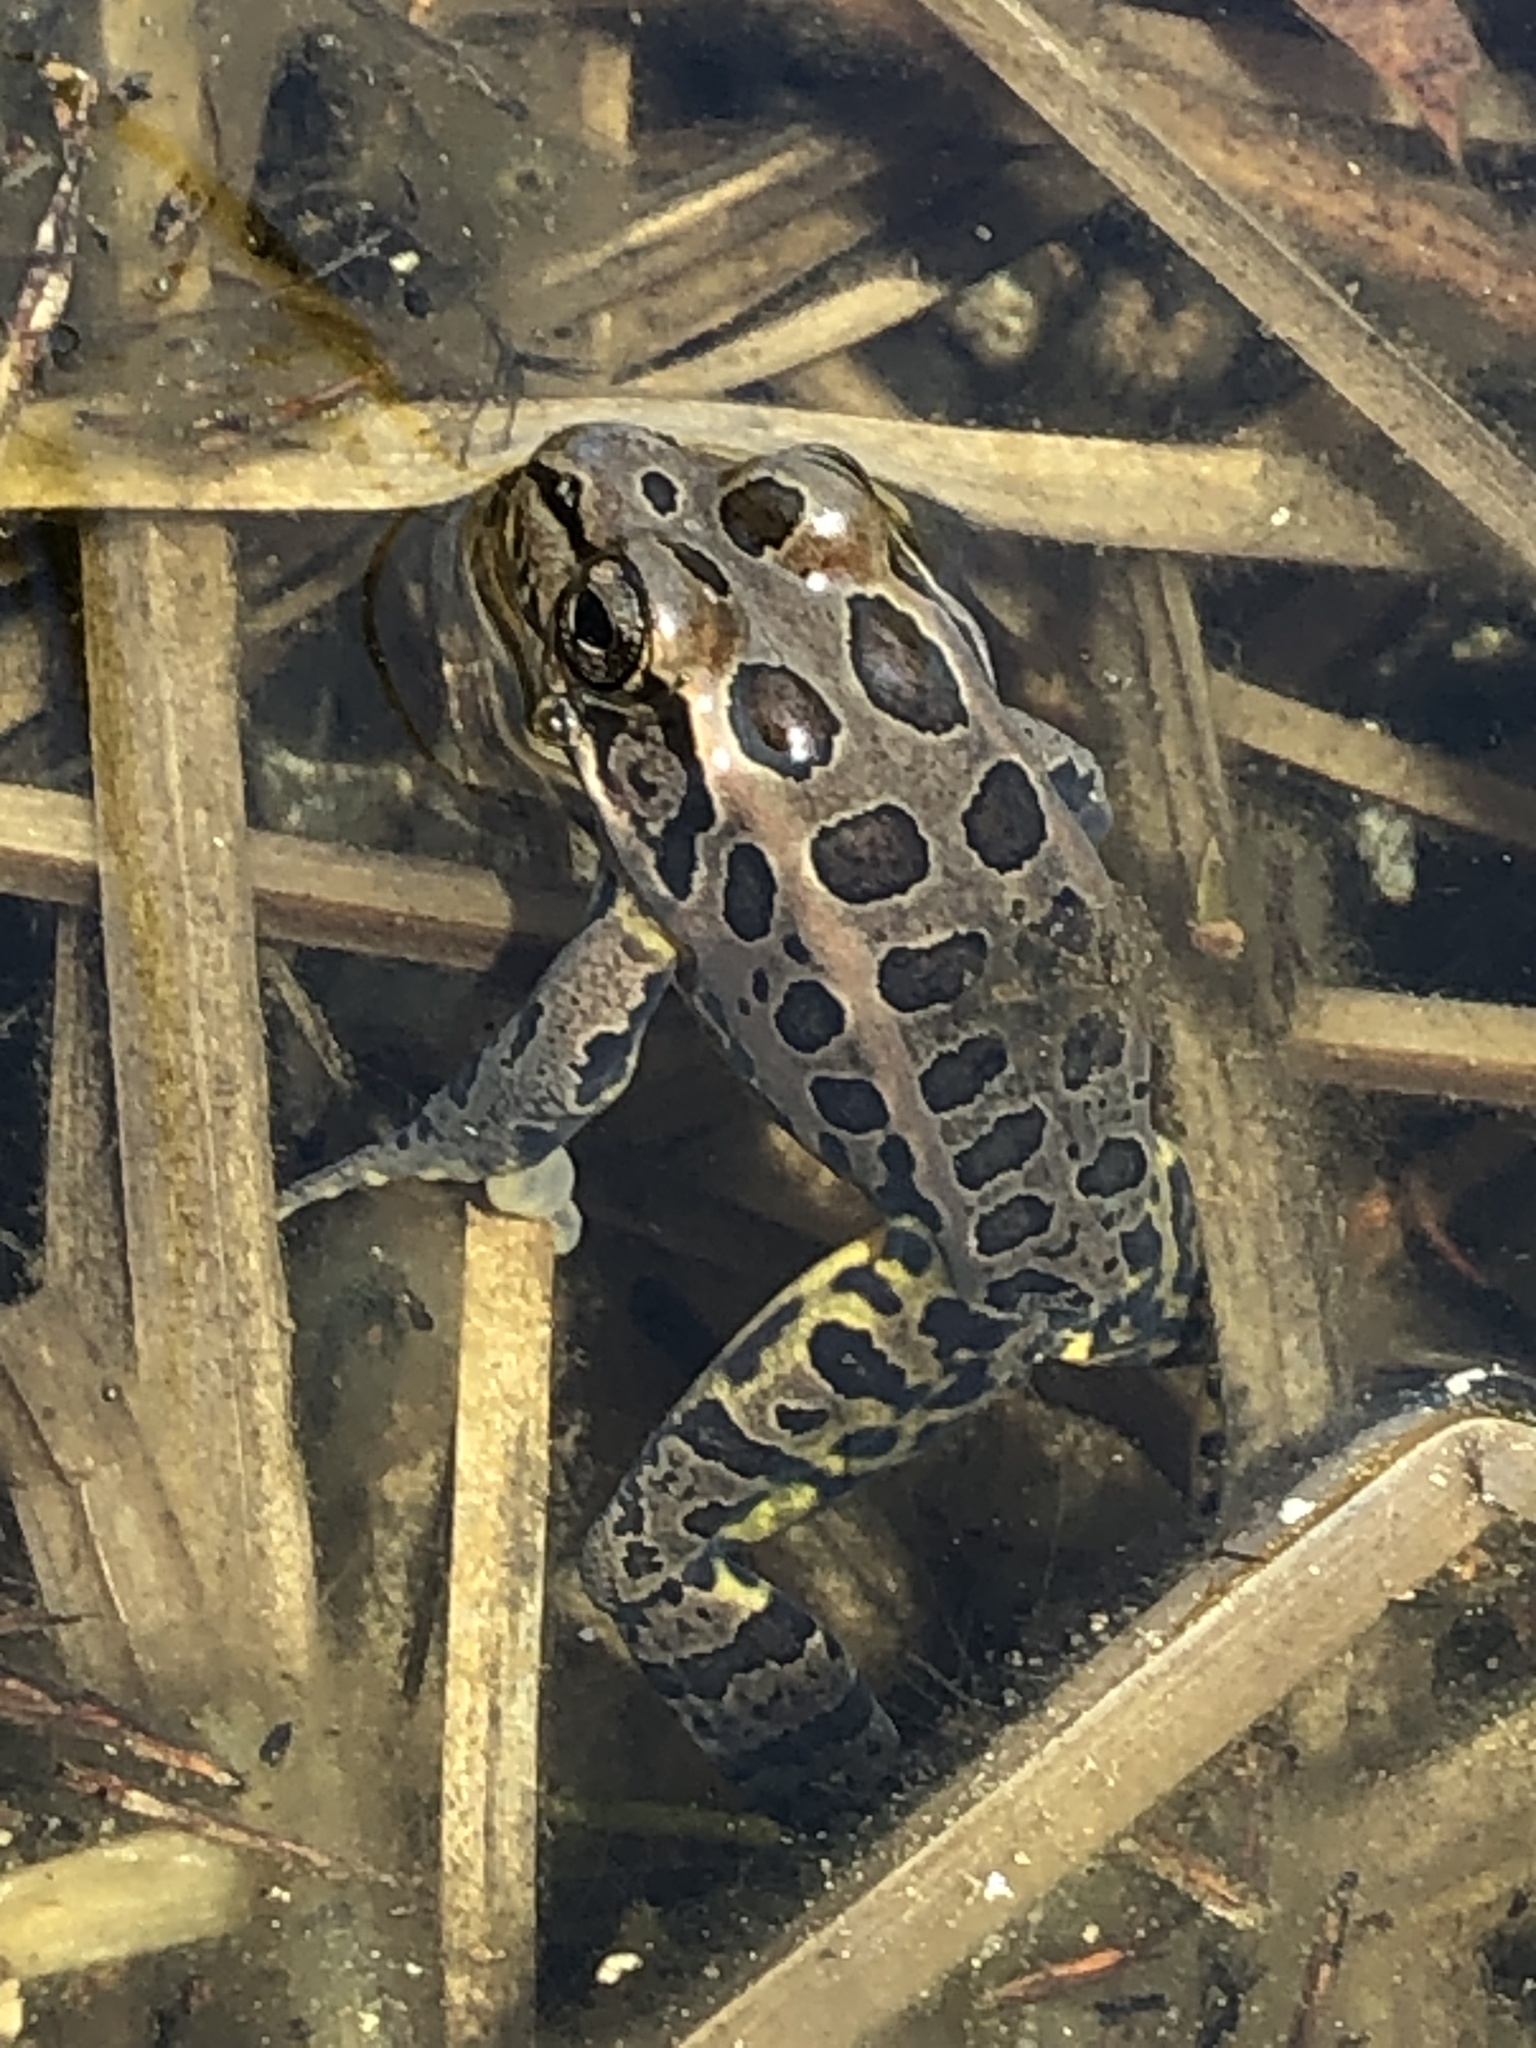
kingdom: Animalia
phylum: Chordata
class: Amphibia
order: Anura
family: Ranidae
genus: Lithobates
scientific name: Lithobates palustris
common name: Pickerel frog
